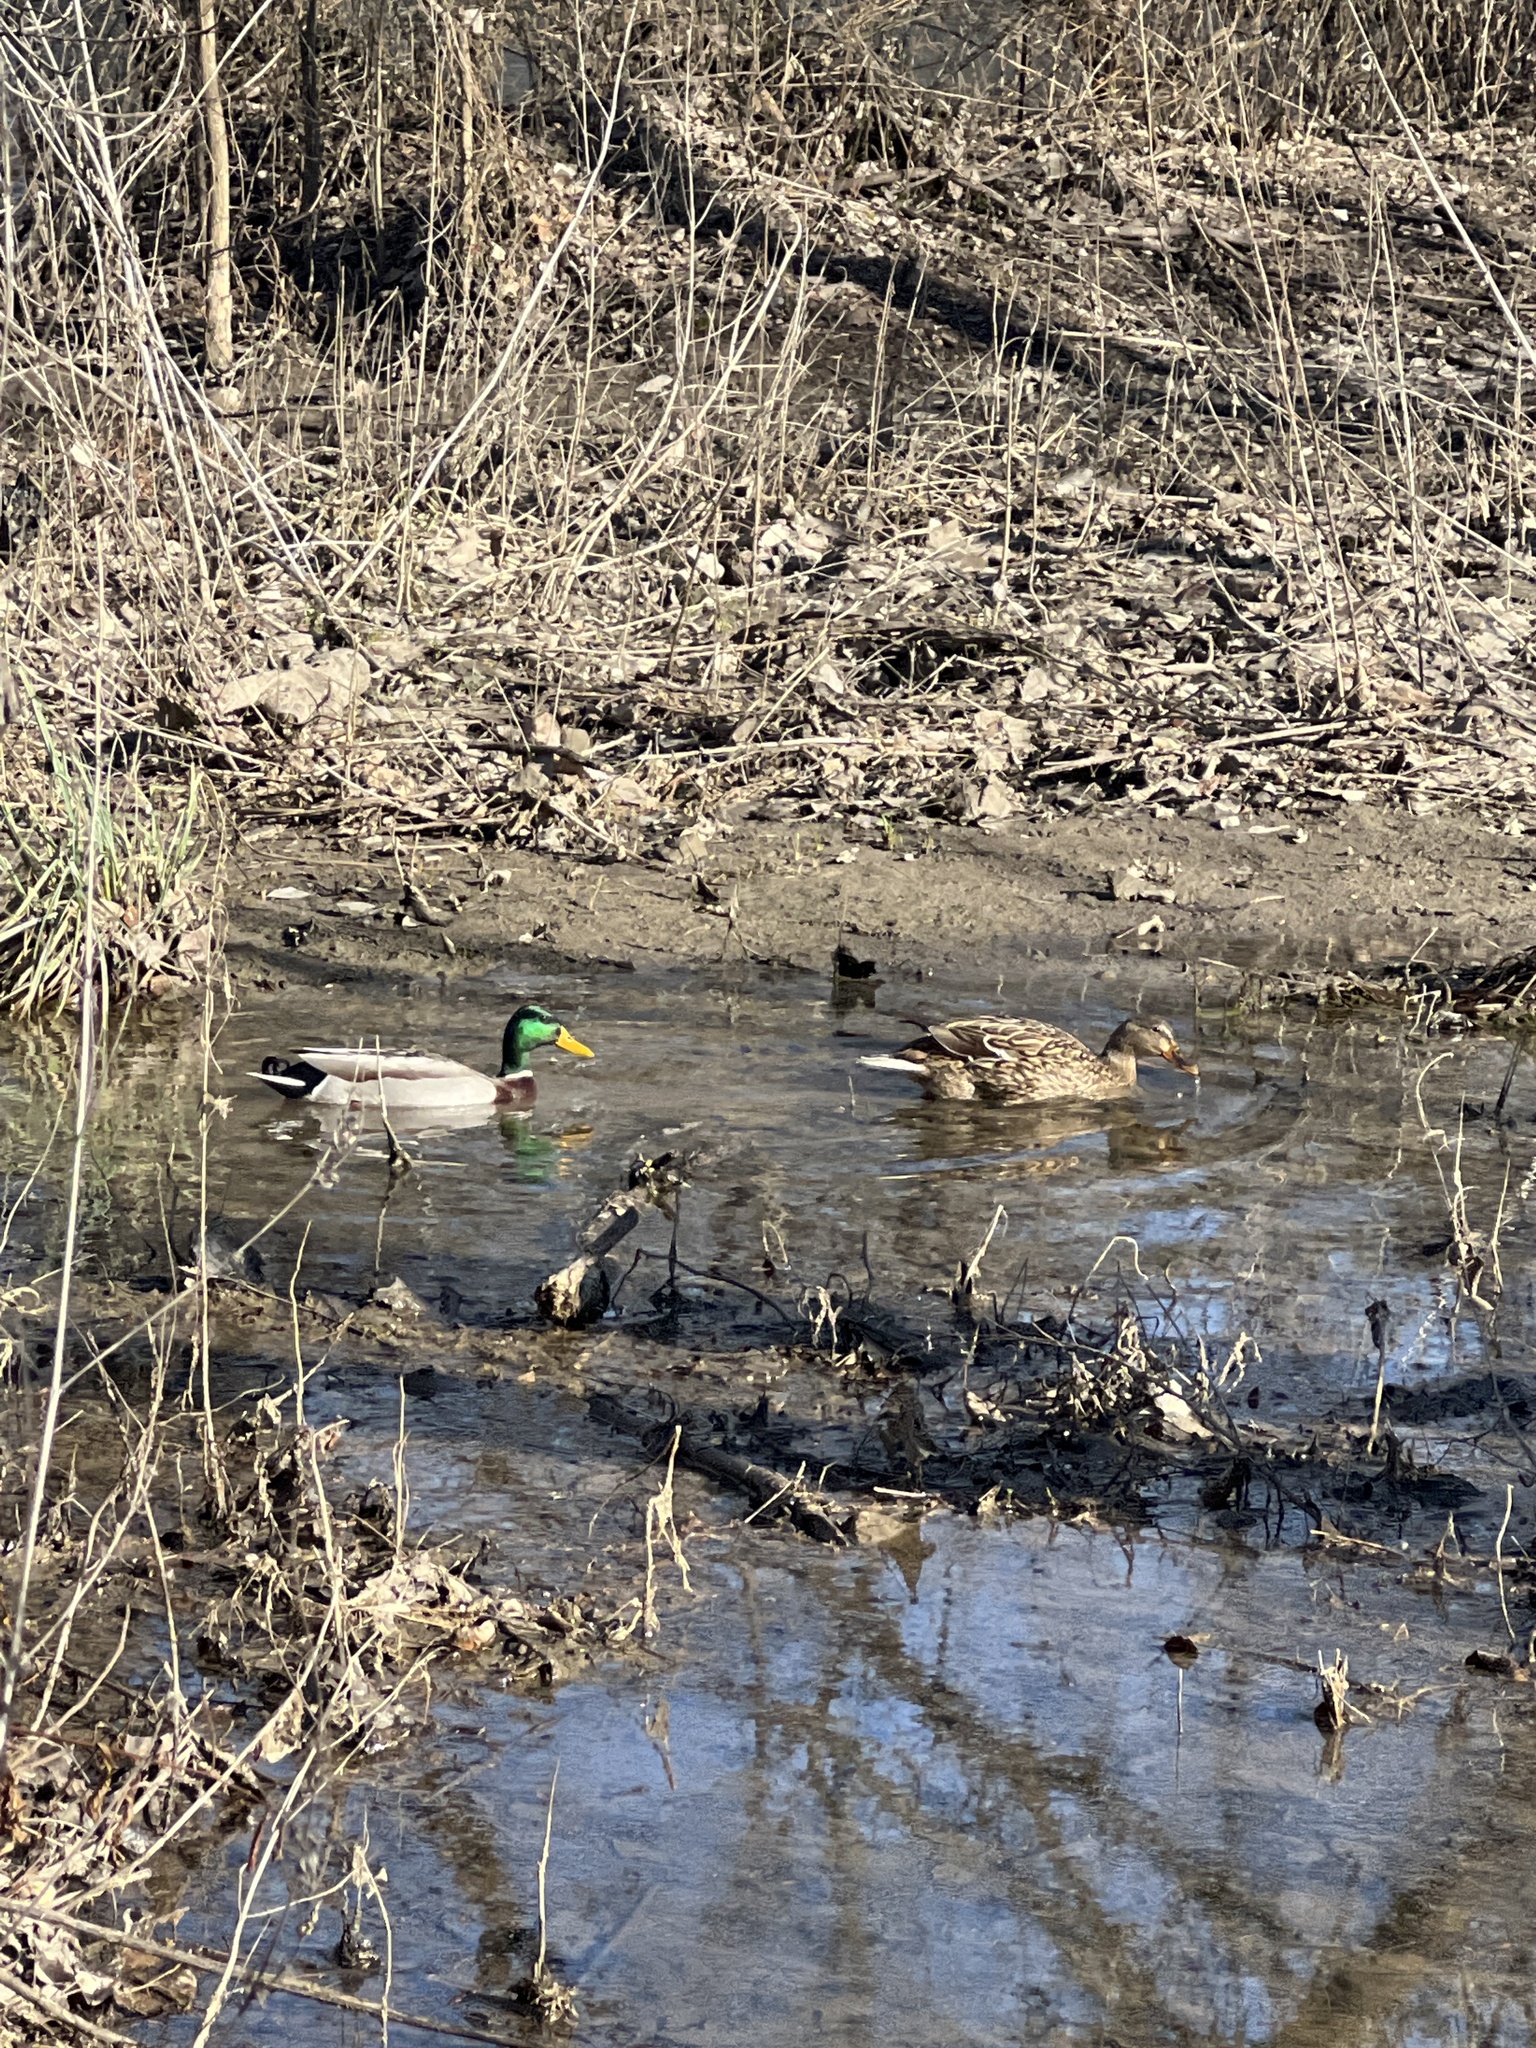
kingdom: Animalia
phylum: Chordata
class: Aves
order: Anseriformes
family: Anatidae
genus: Anas
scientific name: Anas platyrhynchos
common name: Mallard
